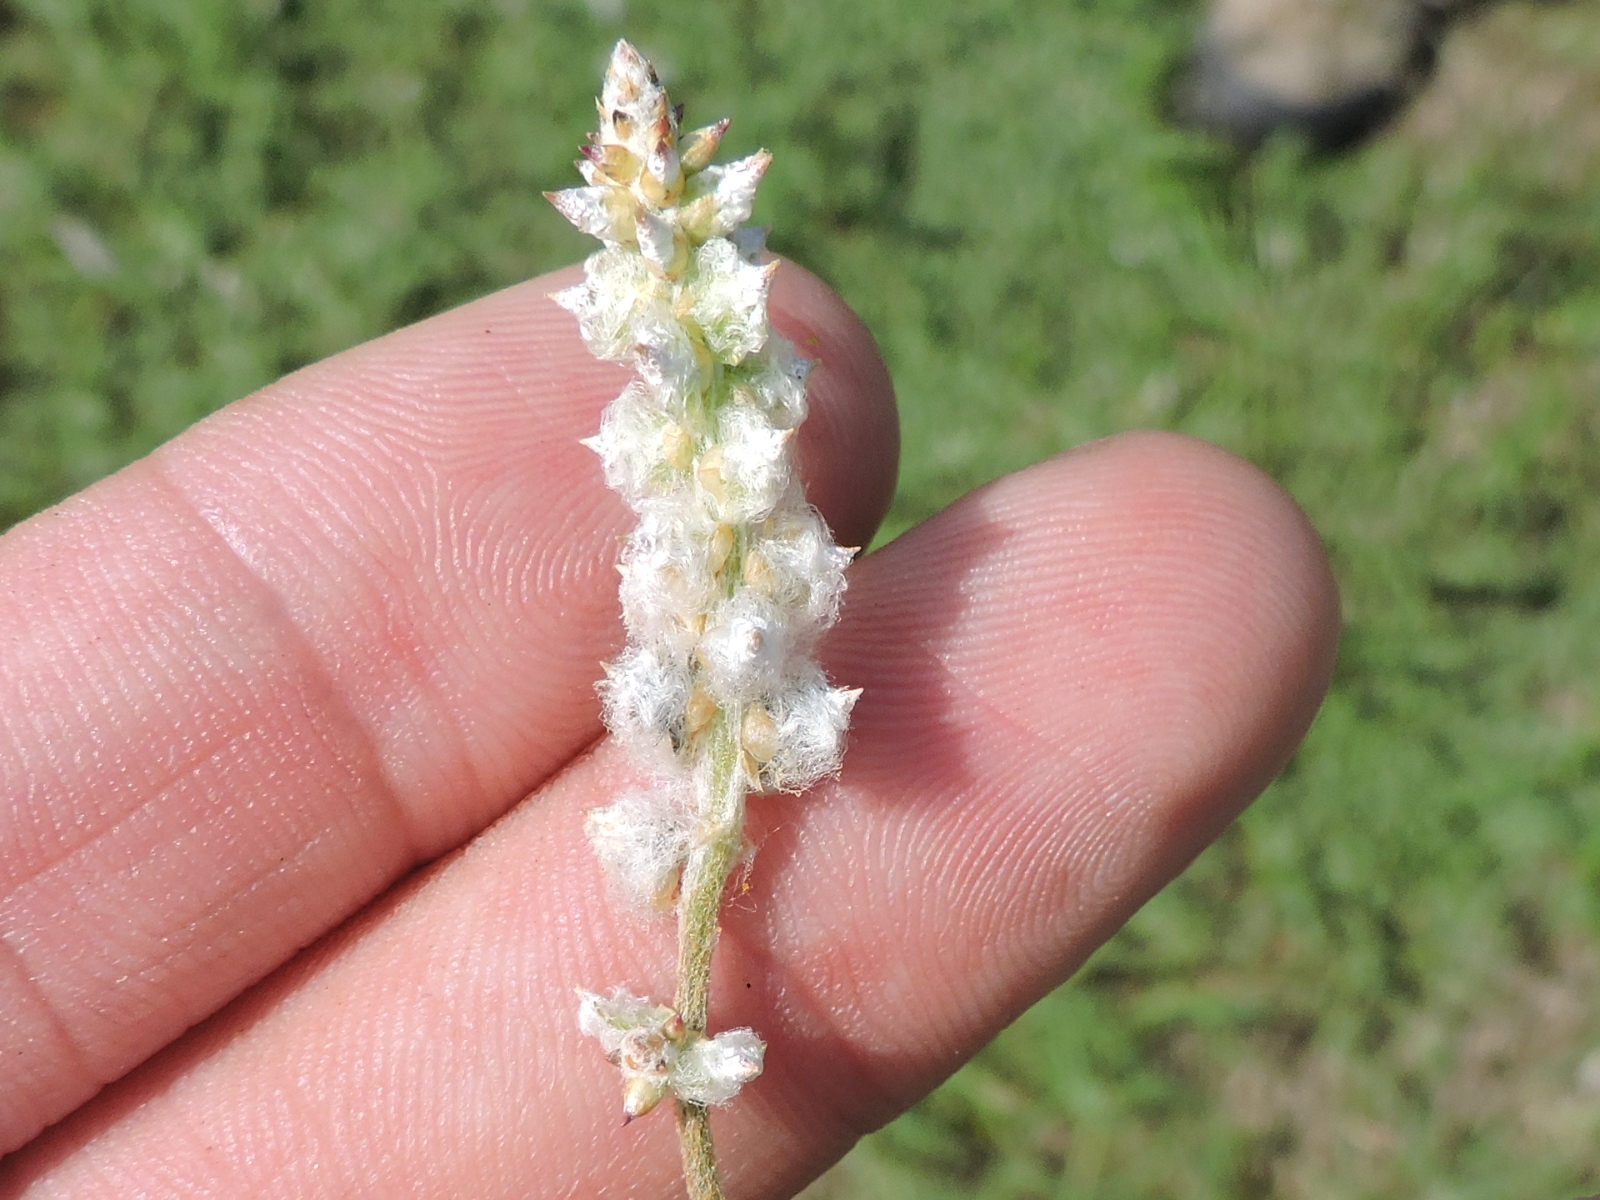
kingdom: Plantae
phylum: Tracheophyta
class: Magnoliopsida
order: Caryophyllales
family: Amaranthaceae
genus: Froelichia
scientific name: Froelichia floridana
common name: Florida snake-cotton
